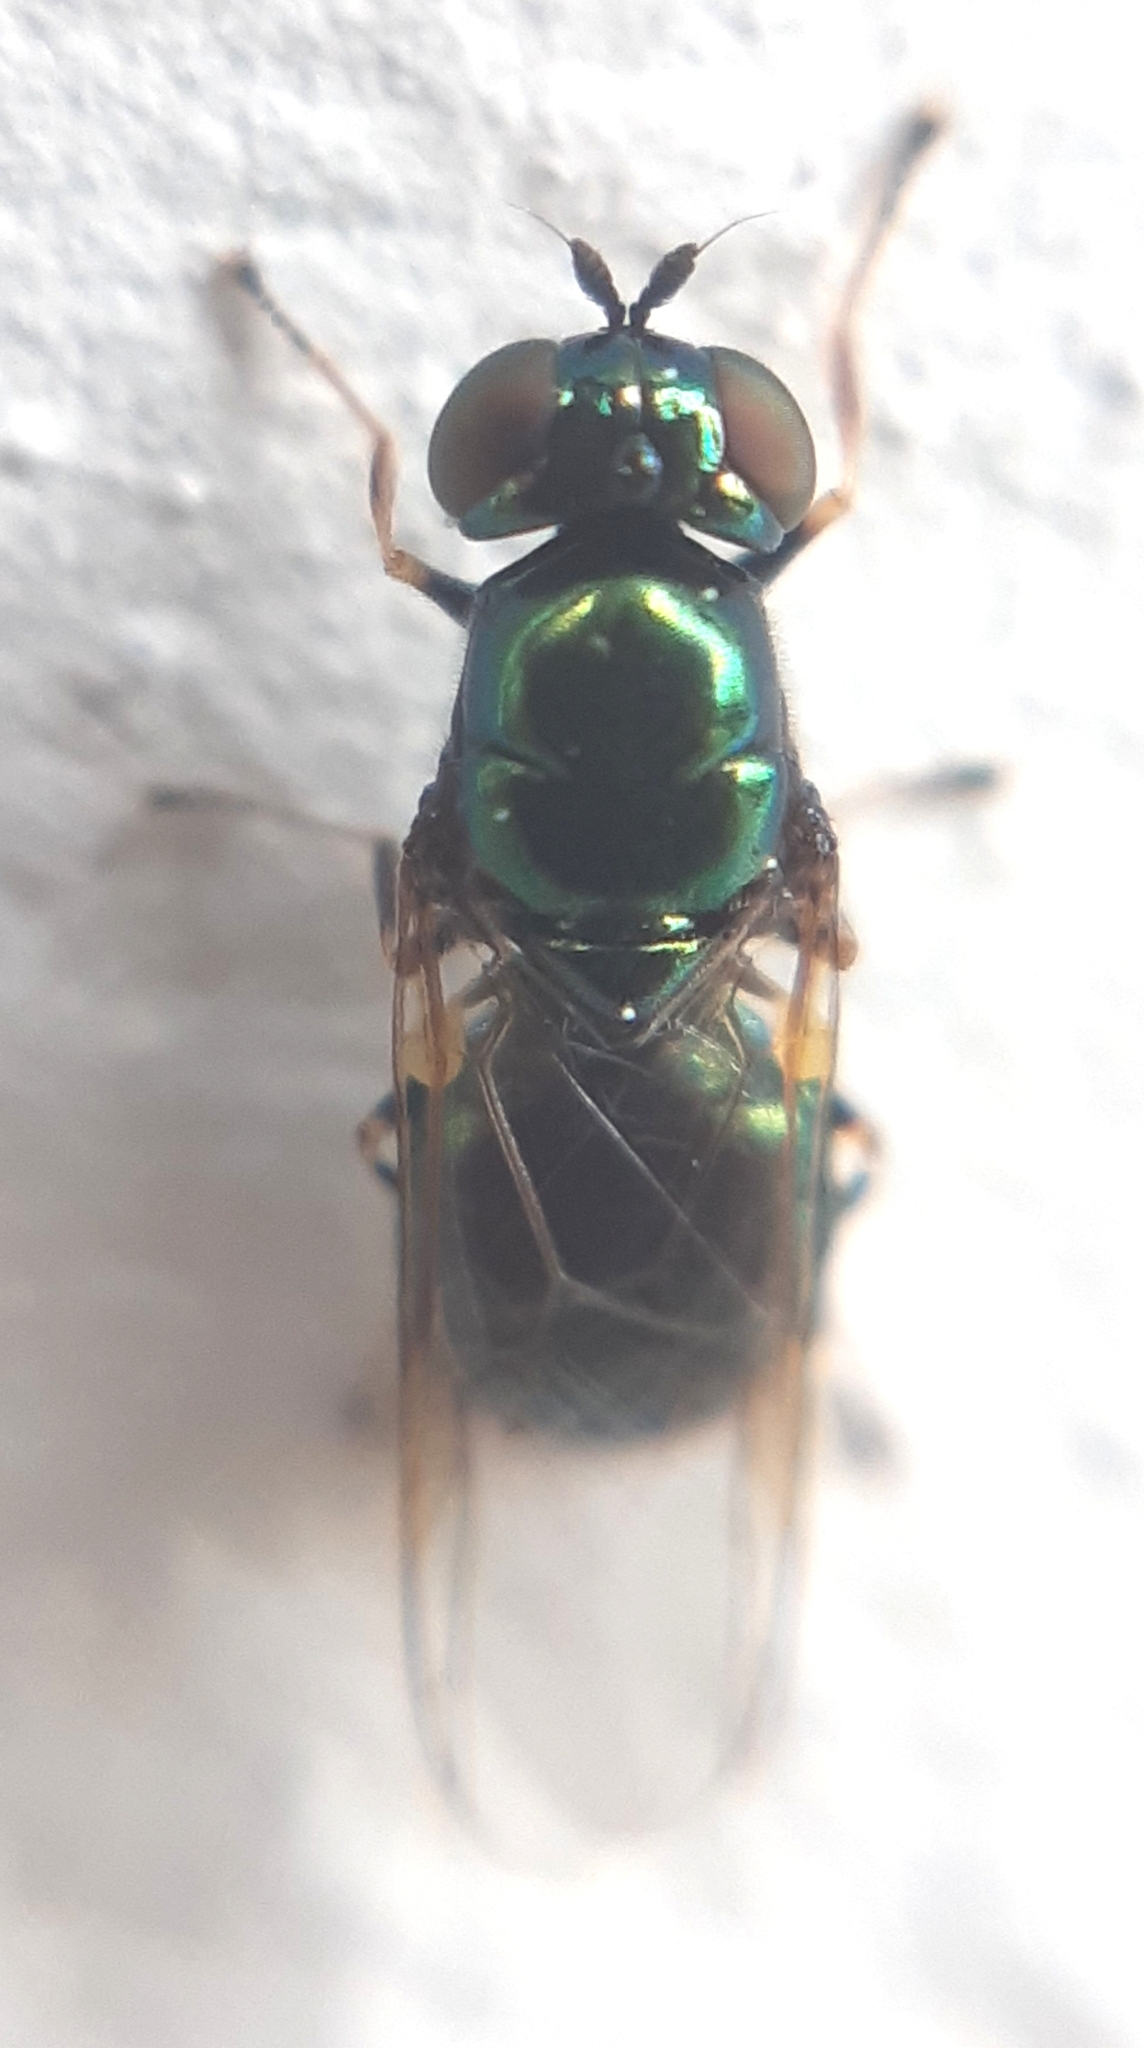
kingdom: Animalia
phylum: Arthropoda
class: Insecta
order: Diptera
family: Stratiomyidae
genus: Microchrysa
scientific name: Microchrysa polita
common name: Black-horned gem
